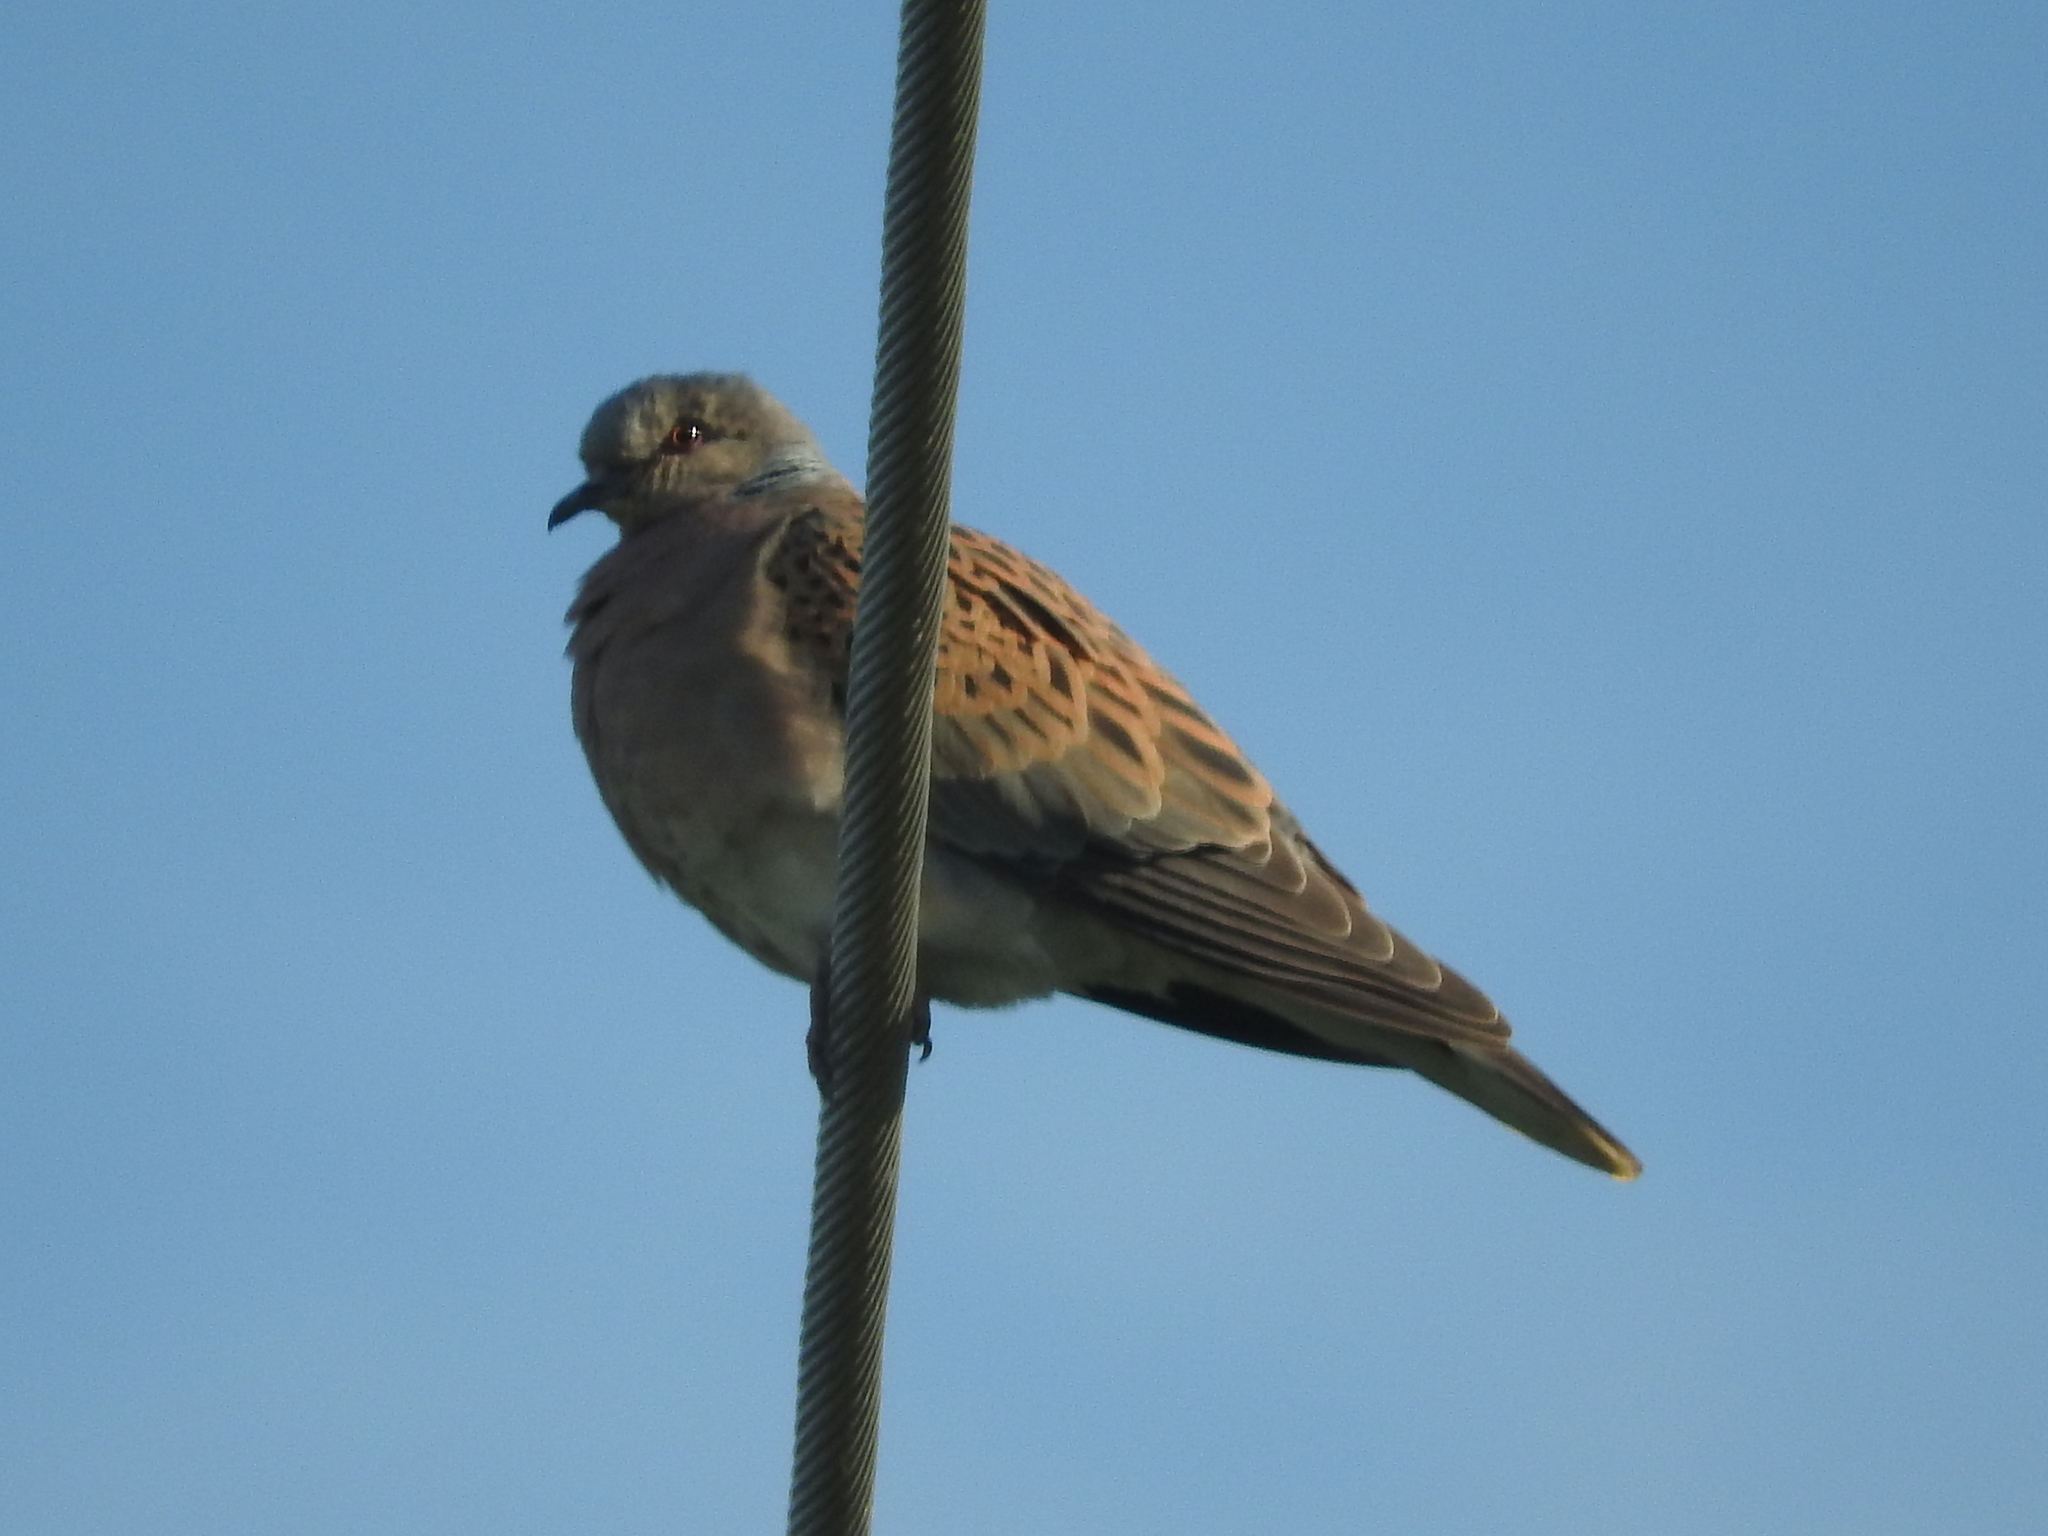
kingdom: Animalia
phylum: Chordata
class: Aves
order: Columbiformes
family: Columbidae
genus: Streptopelia
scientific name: Streptopelia turtur
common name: European turtle dove
